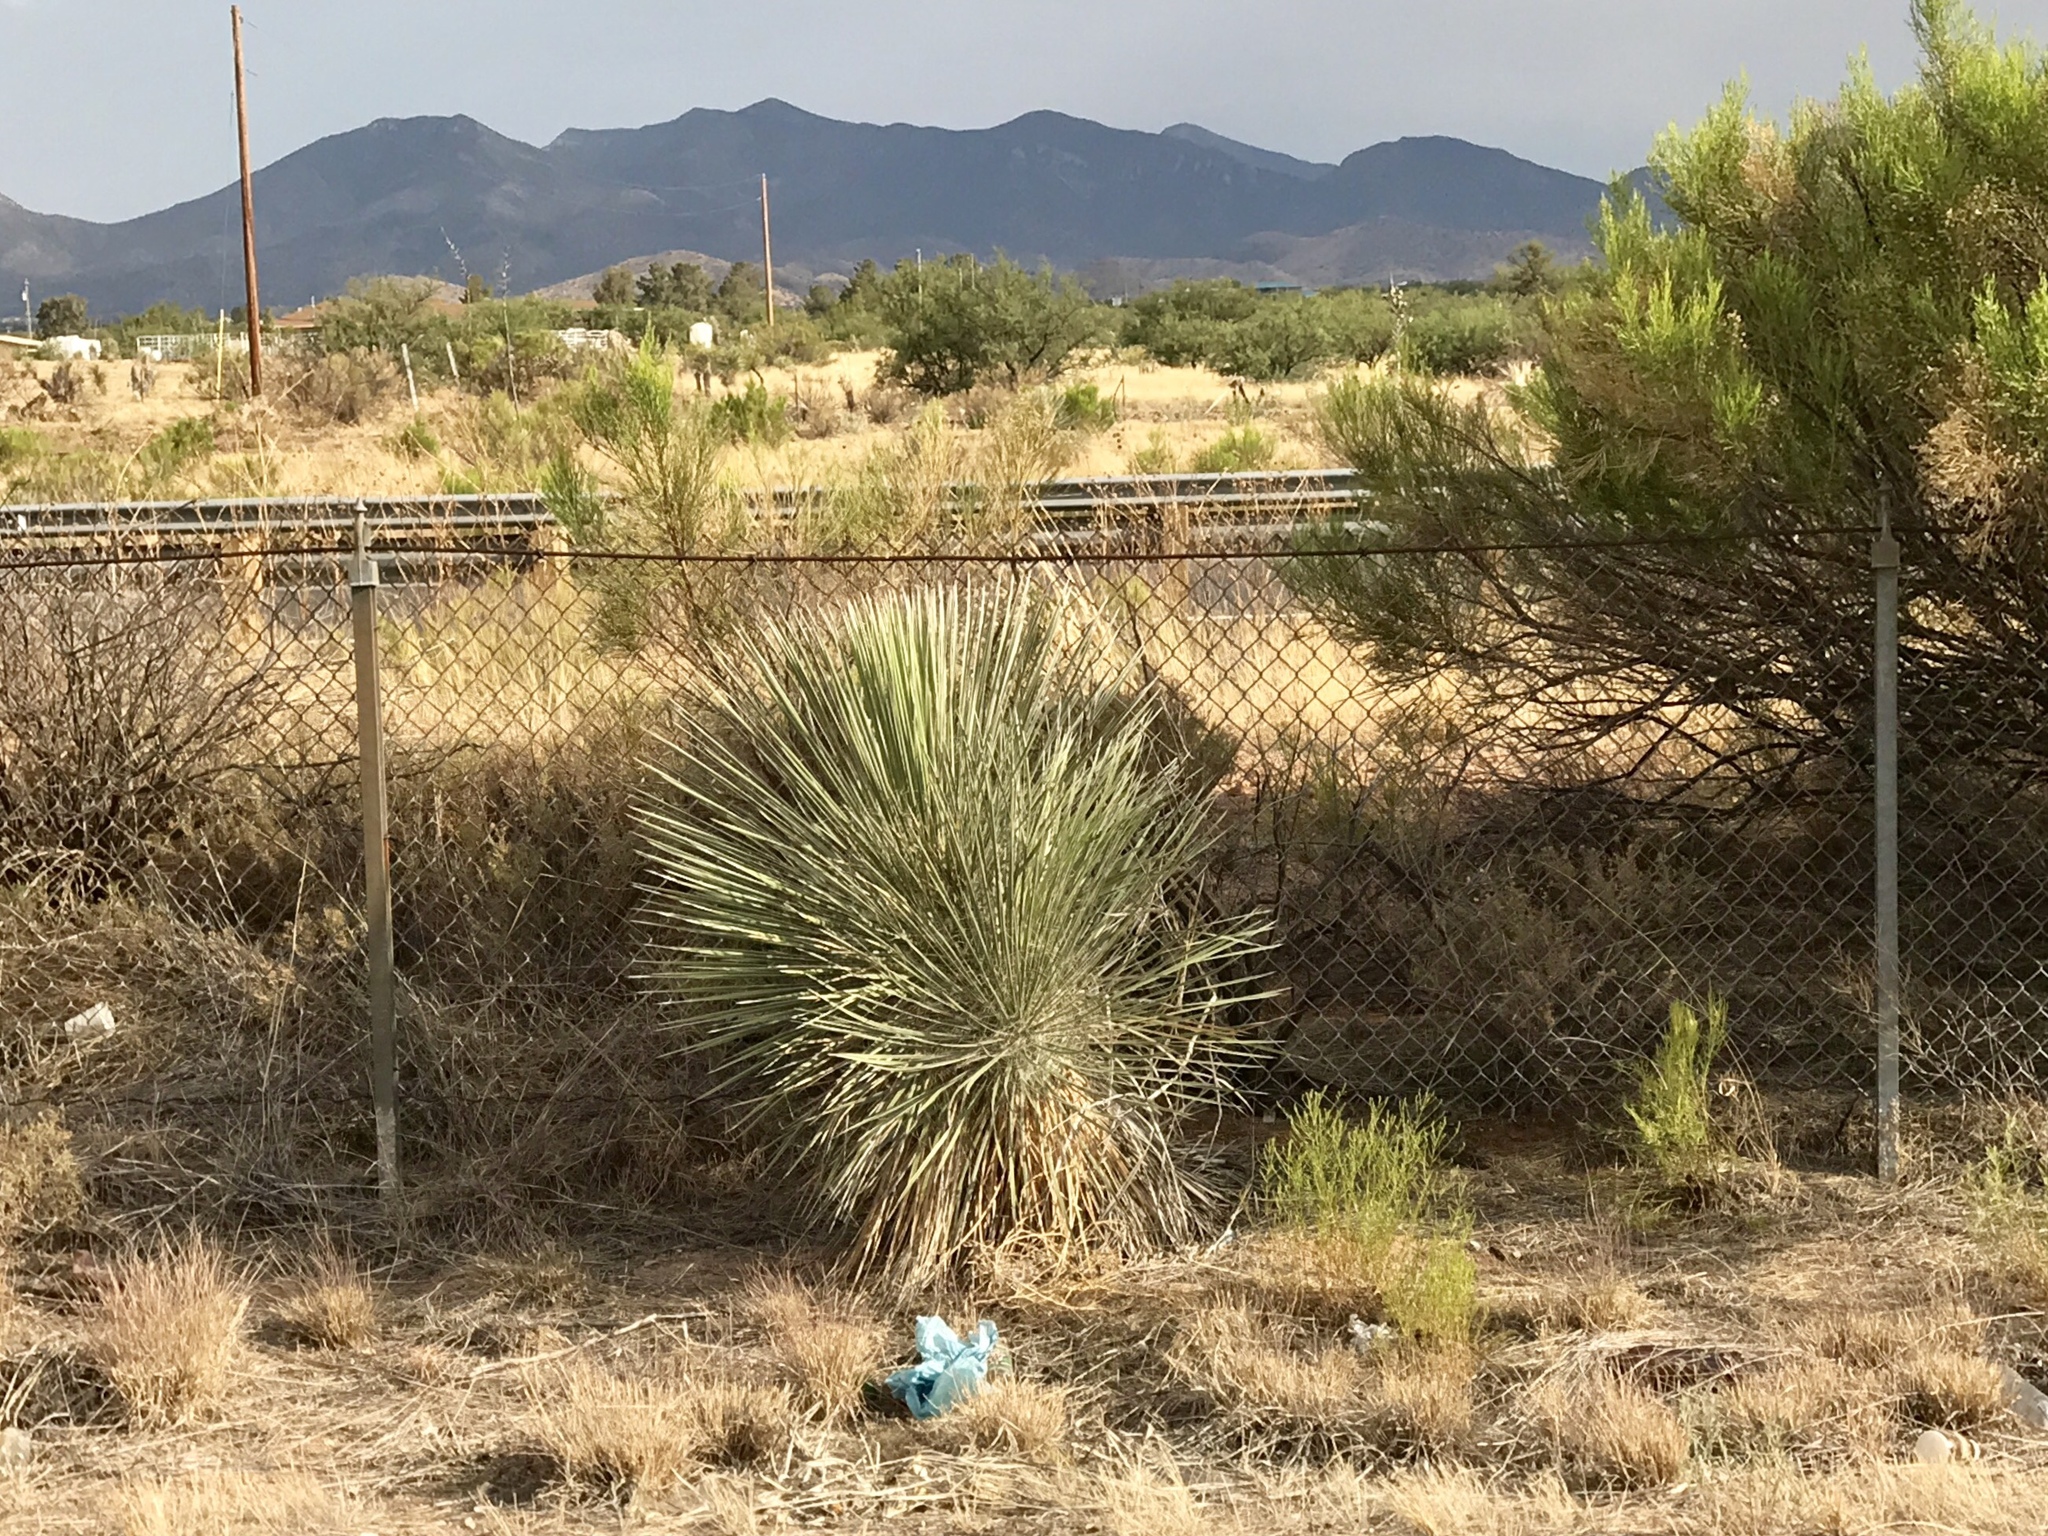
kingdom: Plantae
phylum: Tracheophyta
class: Liliopsida
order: Asparagales
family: Asparagaceae
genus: Yucca
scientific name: Yucca elata
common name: Palmella
